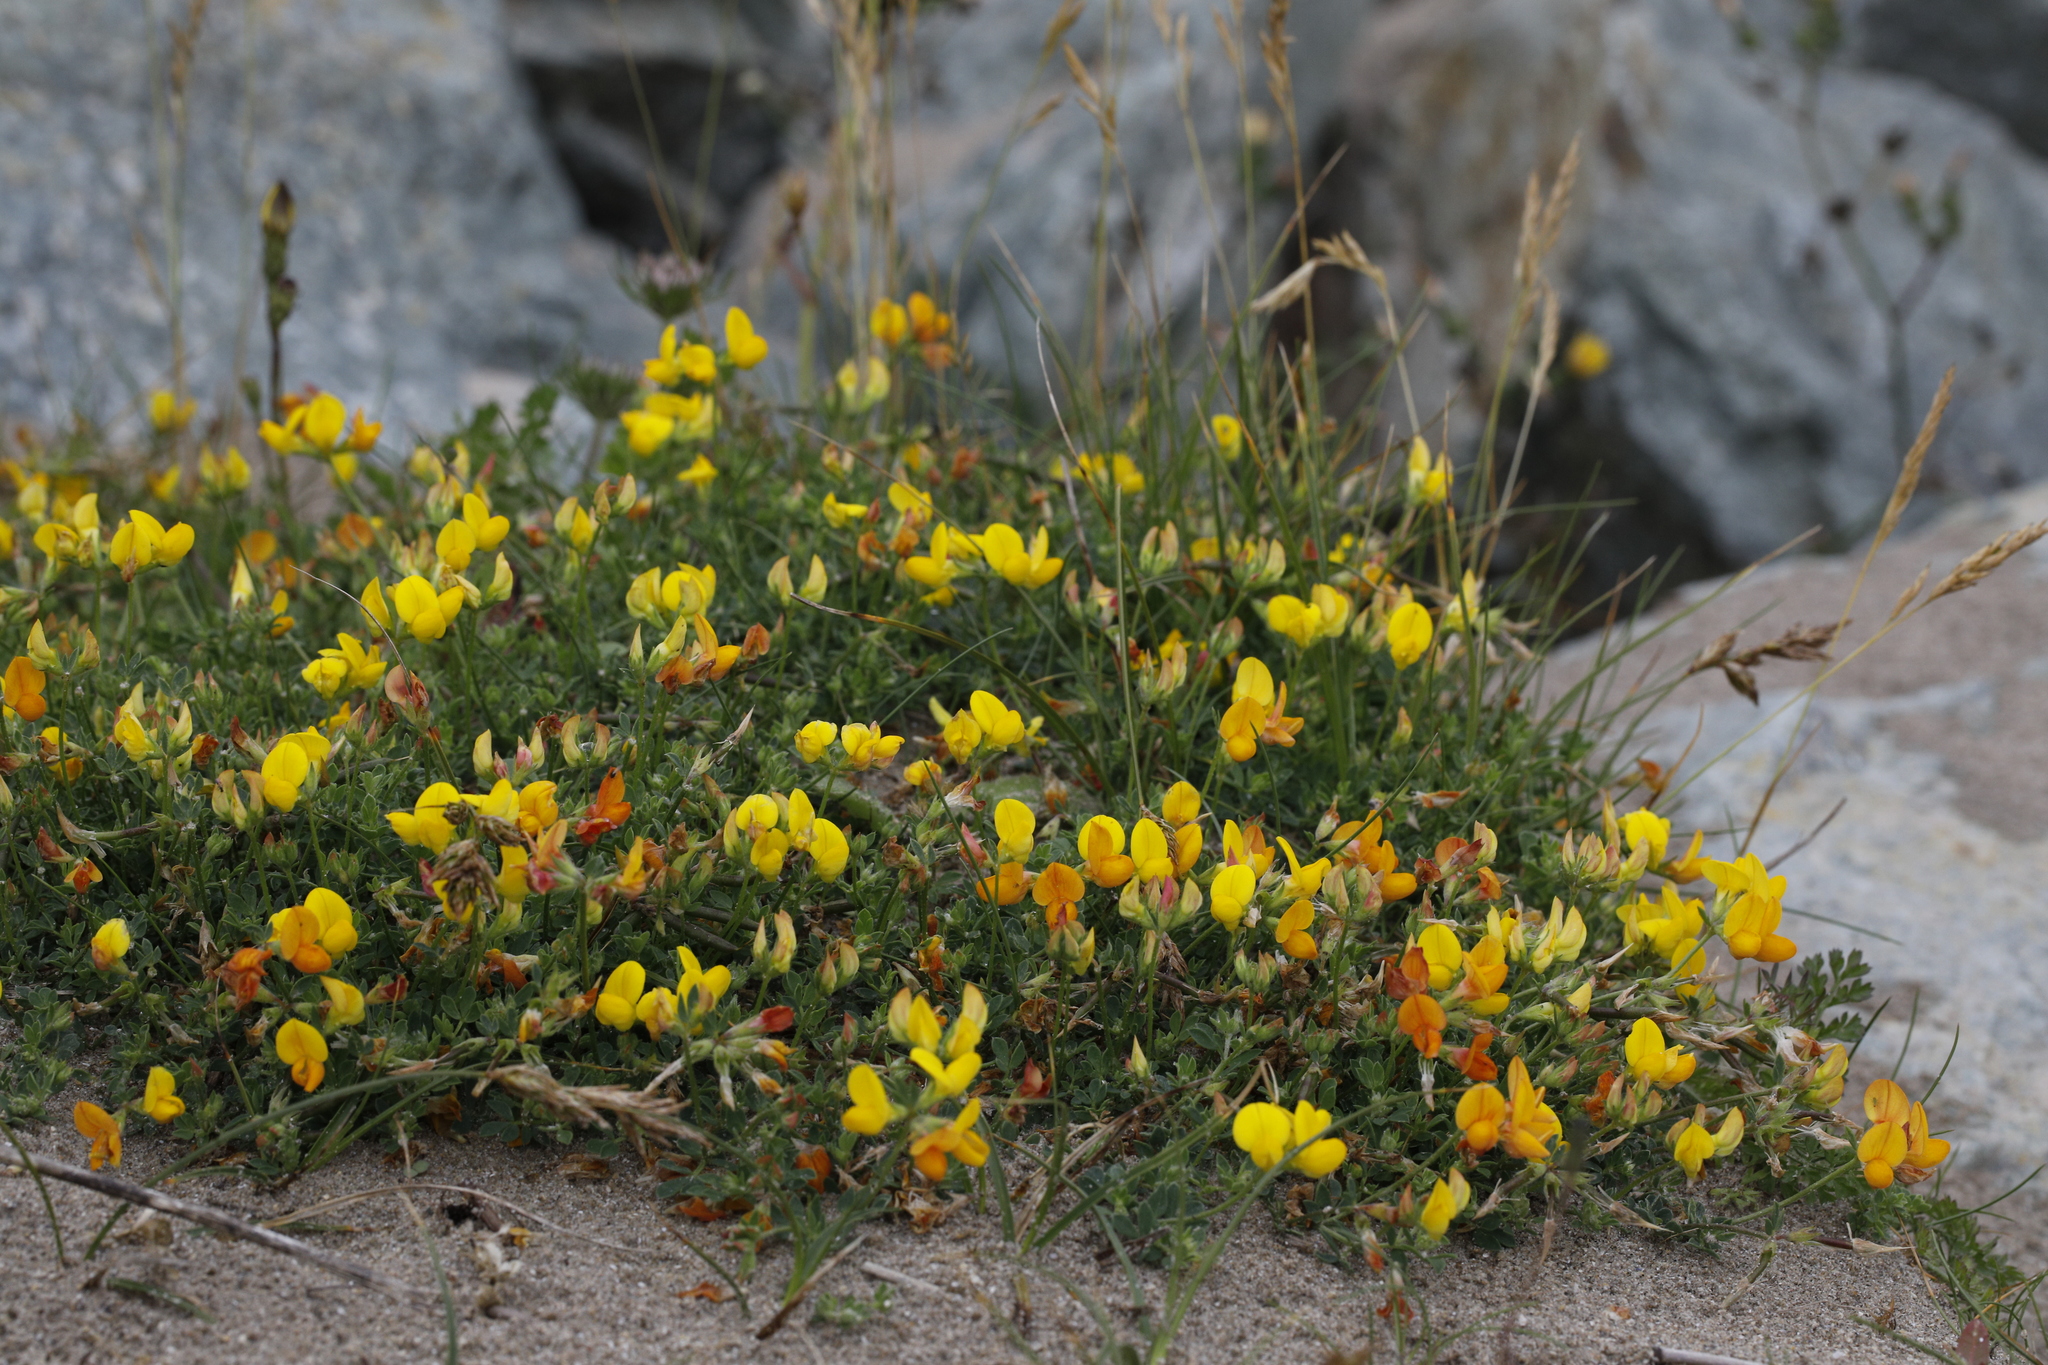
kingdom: Plantae
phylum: Tracheophyta
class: Magnoliopsida
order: Fabales
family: Fabaceae
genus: Lotus
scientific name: Lotus corniculatus
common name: Common bird's-foot-trefoil
